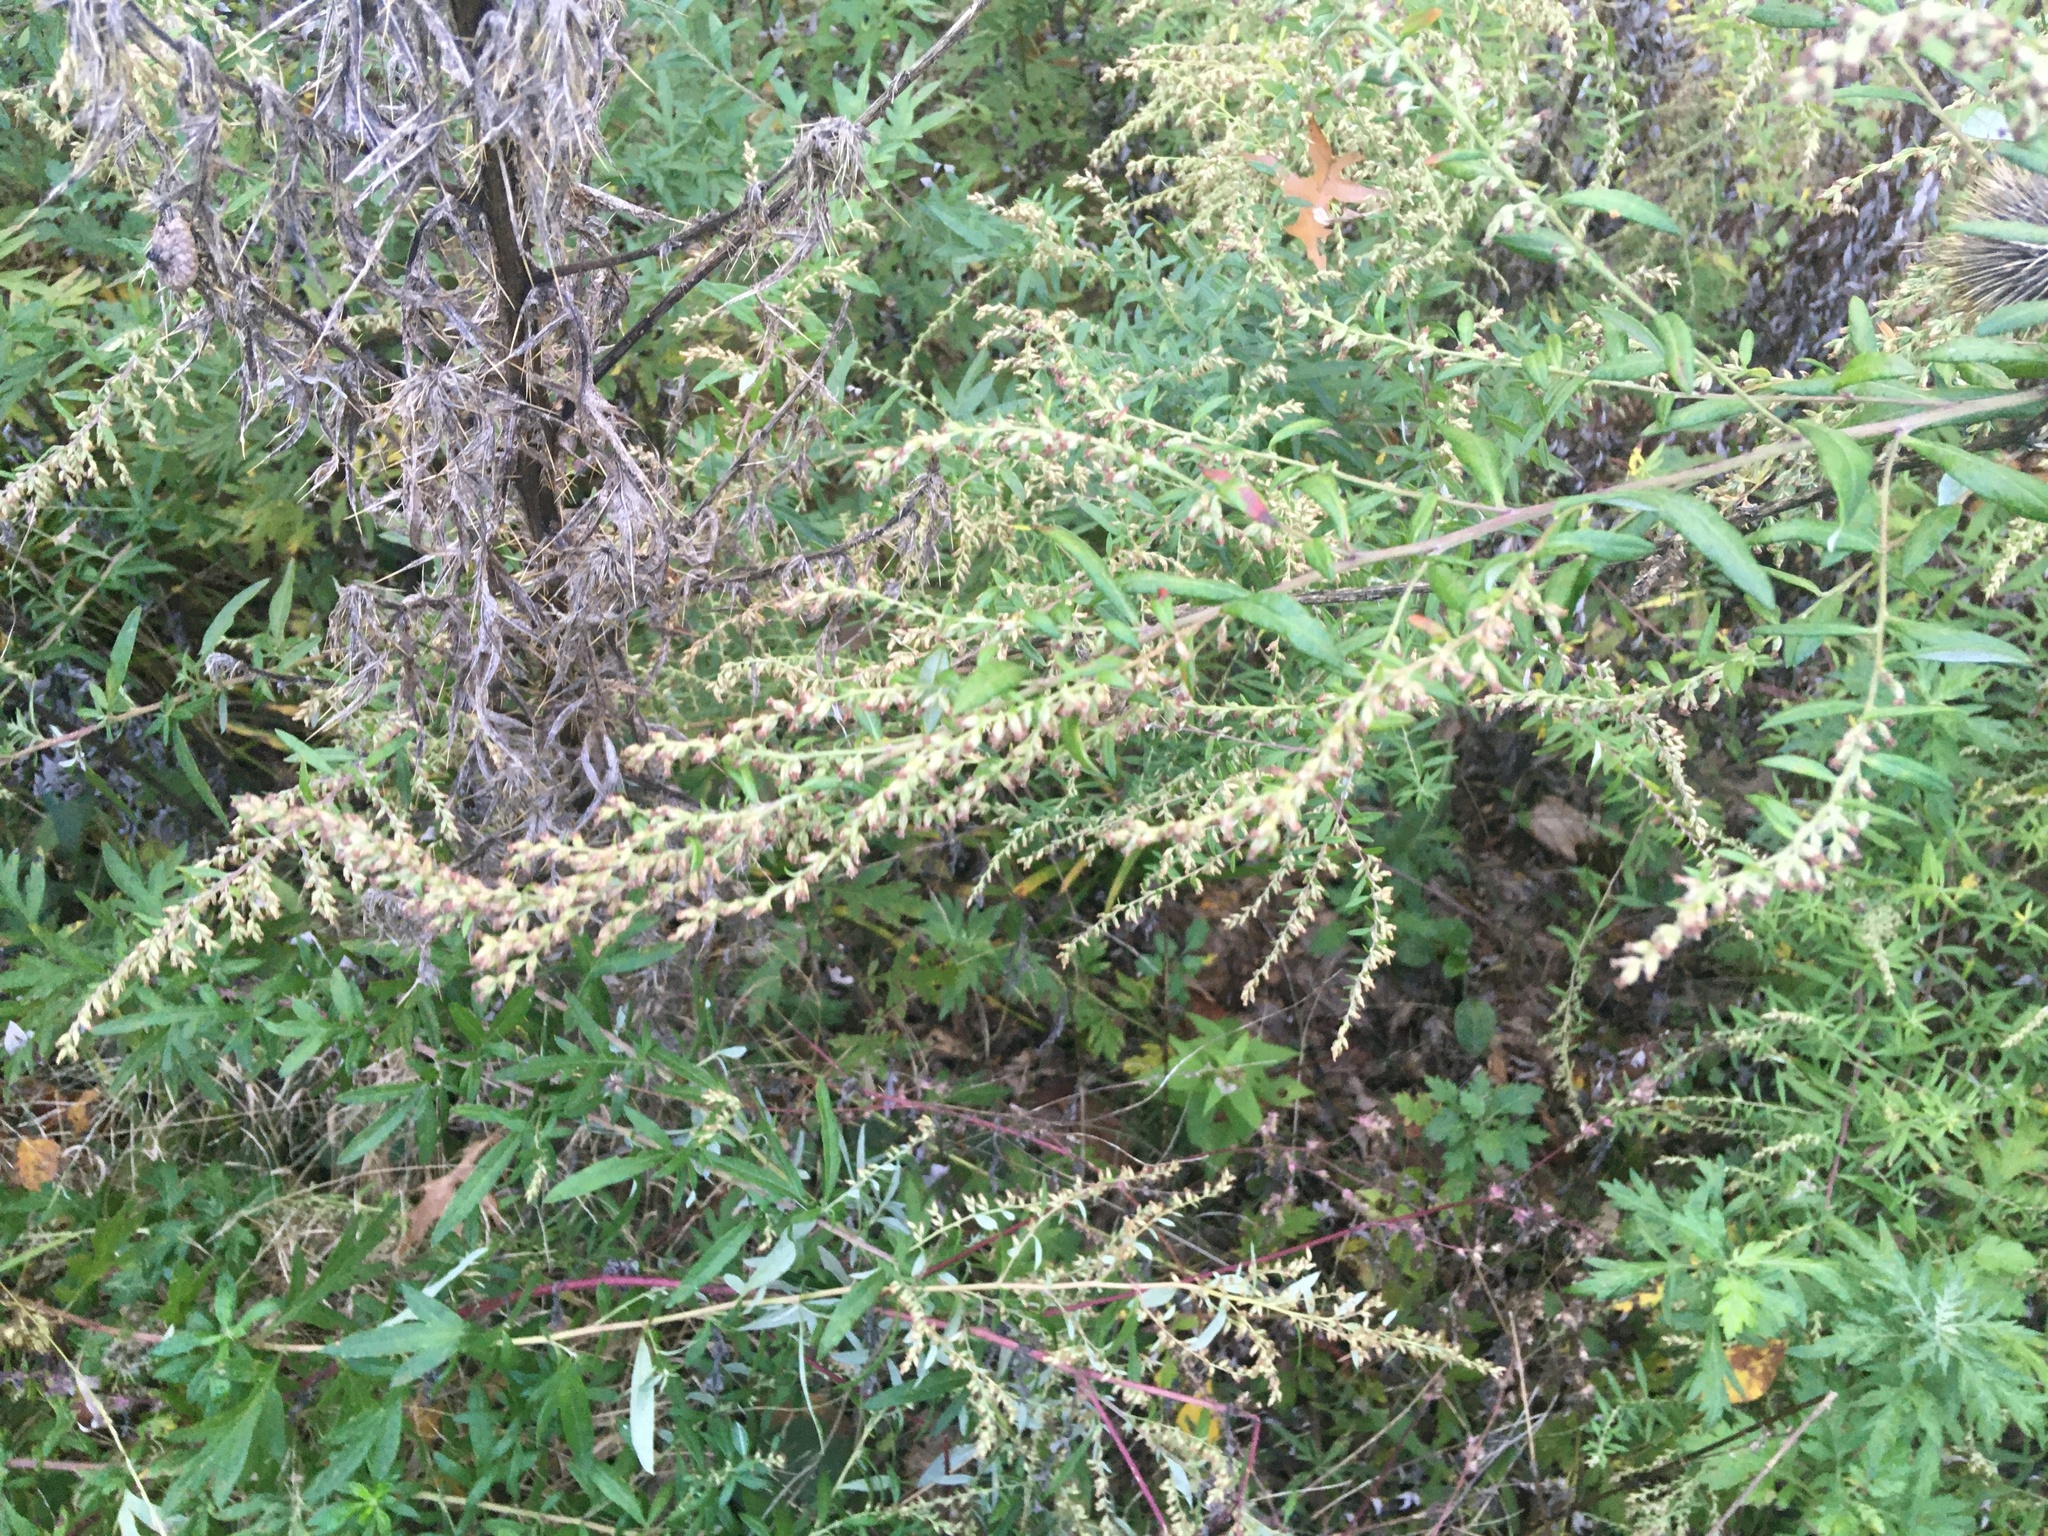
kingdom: Plantae
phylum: Tracheophyta
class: Magnoliopsida
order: Asterales
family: Asteraceae
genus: Artemisia
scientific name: Artemisia vulgaris
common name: Mugwort
